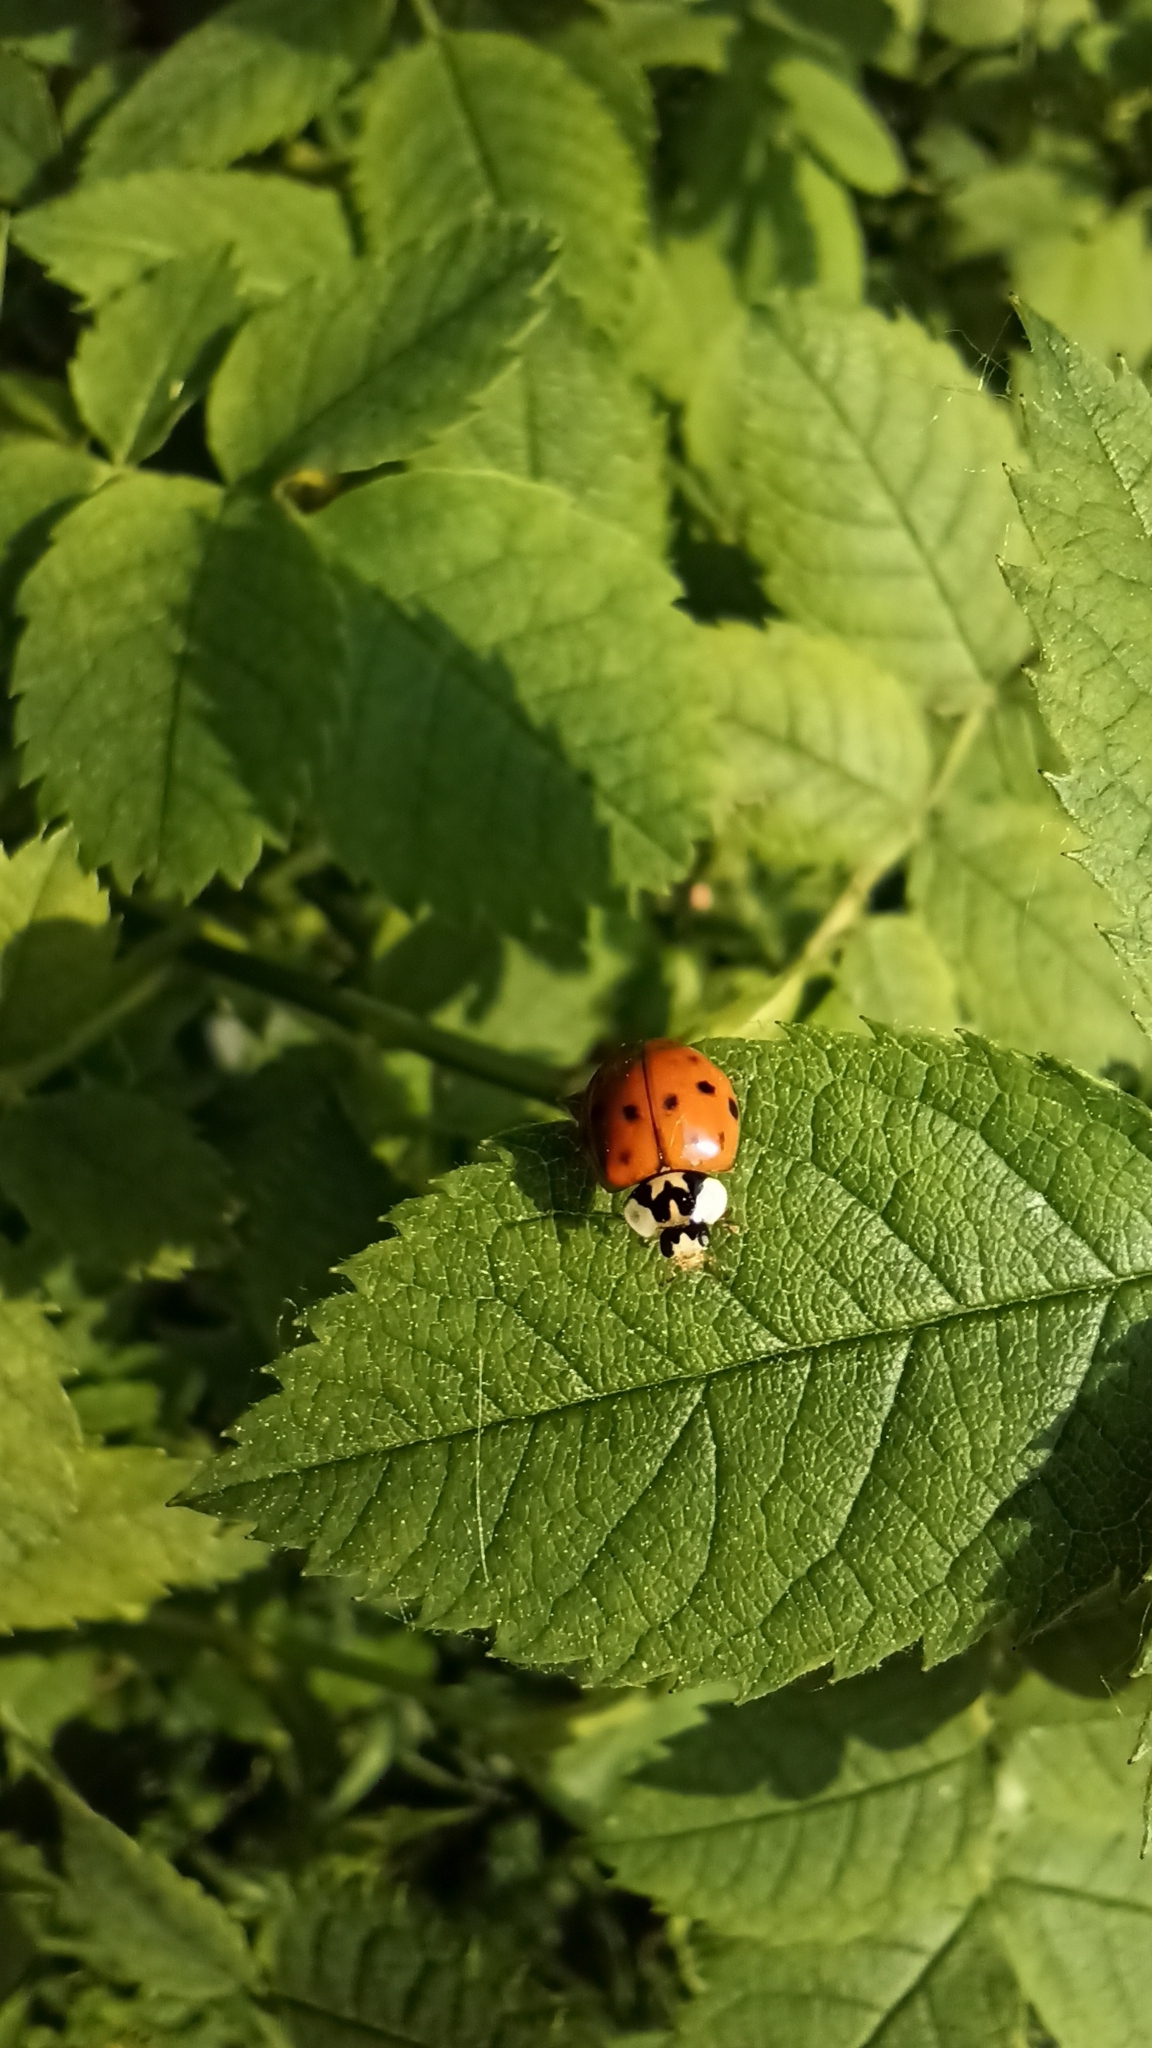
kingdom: Animalia
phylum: Arthropoda
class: Insecta
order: Coleoptera
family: Coccinellidae
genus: Harmonia
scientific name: Harmonia axyridis
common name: Harlequin ladybird
